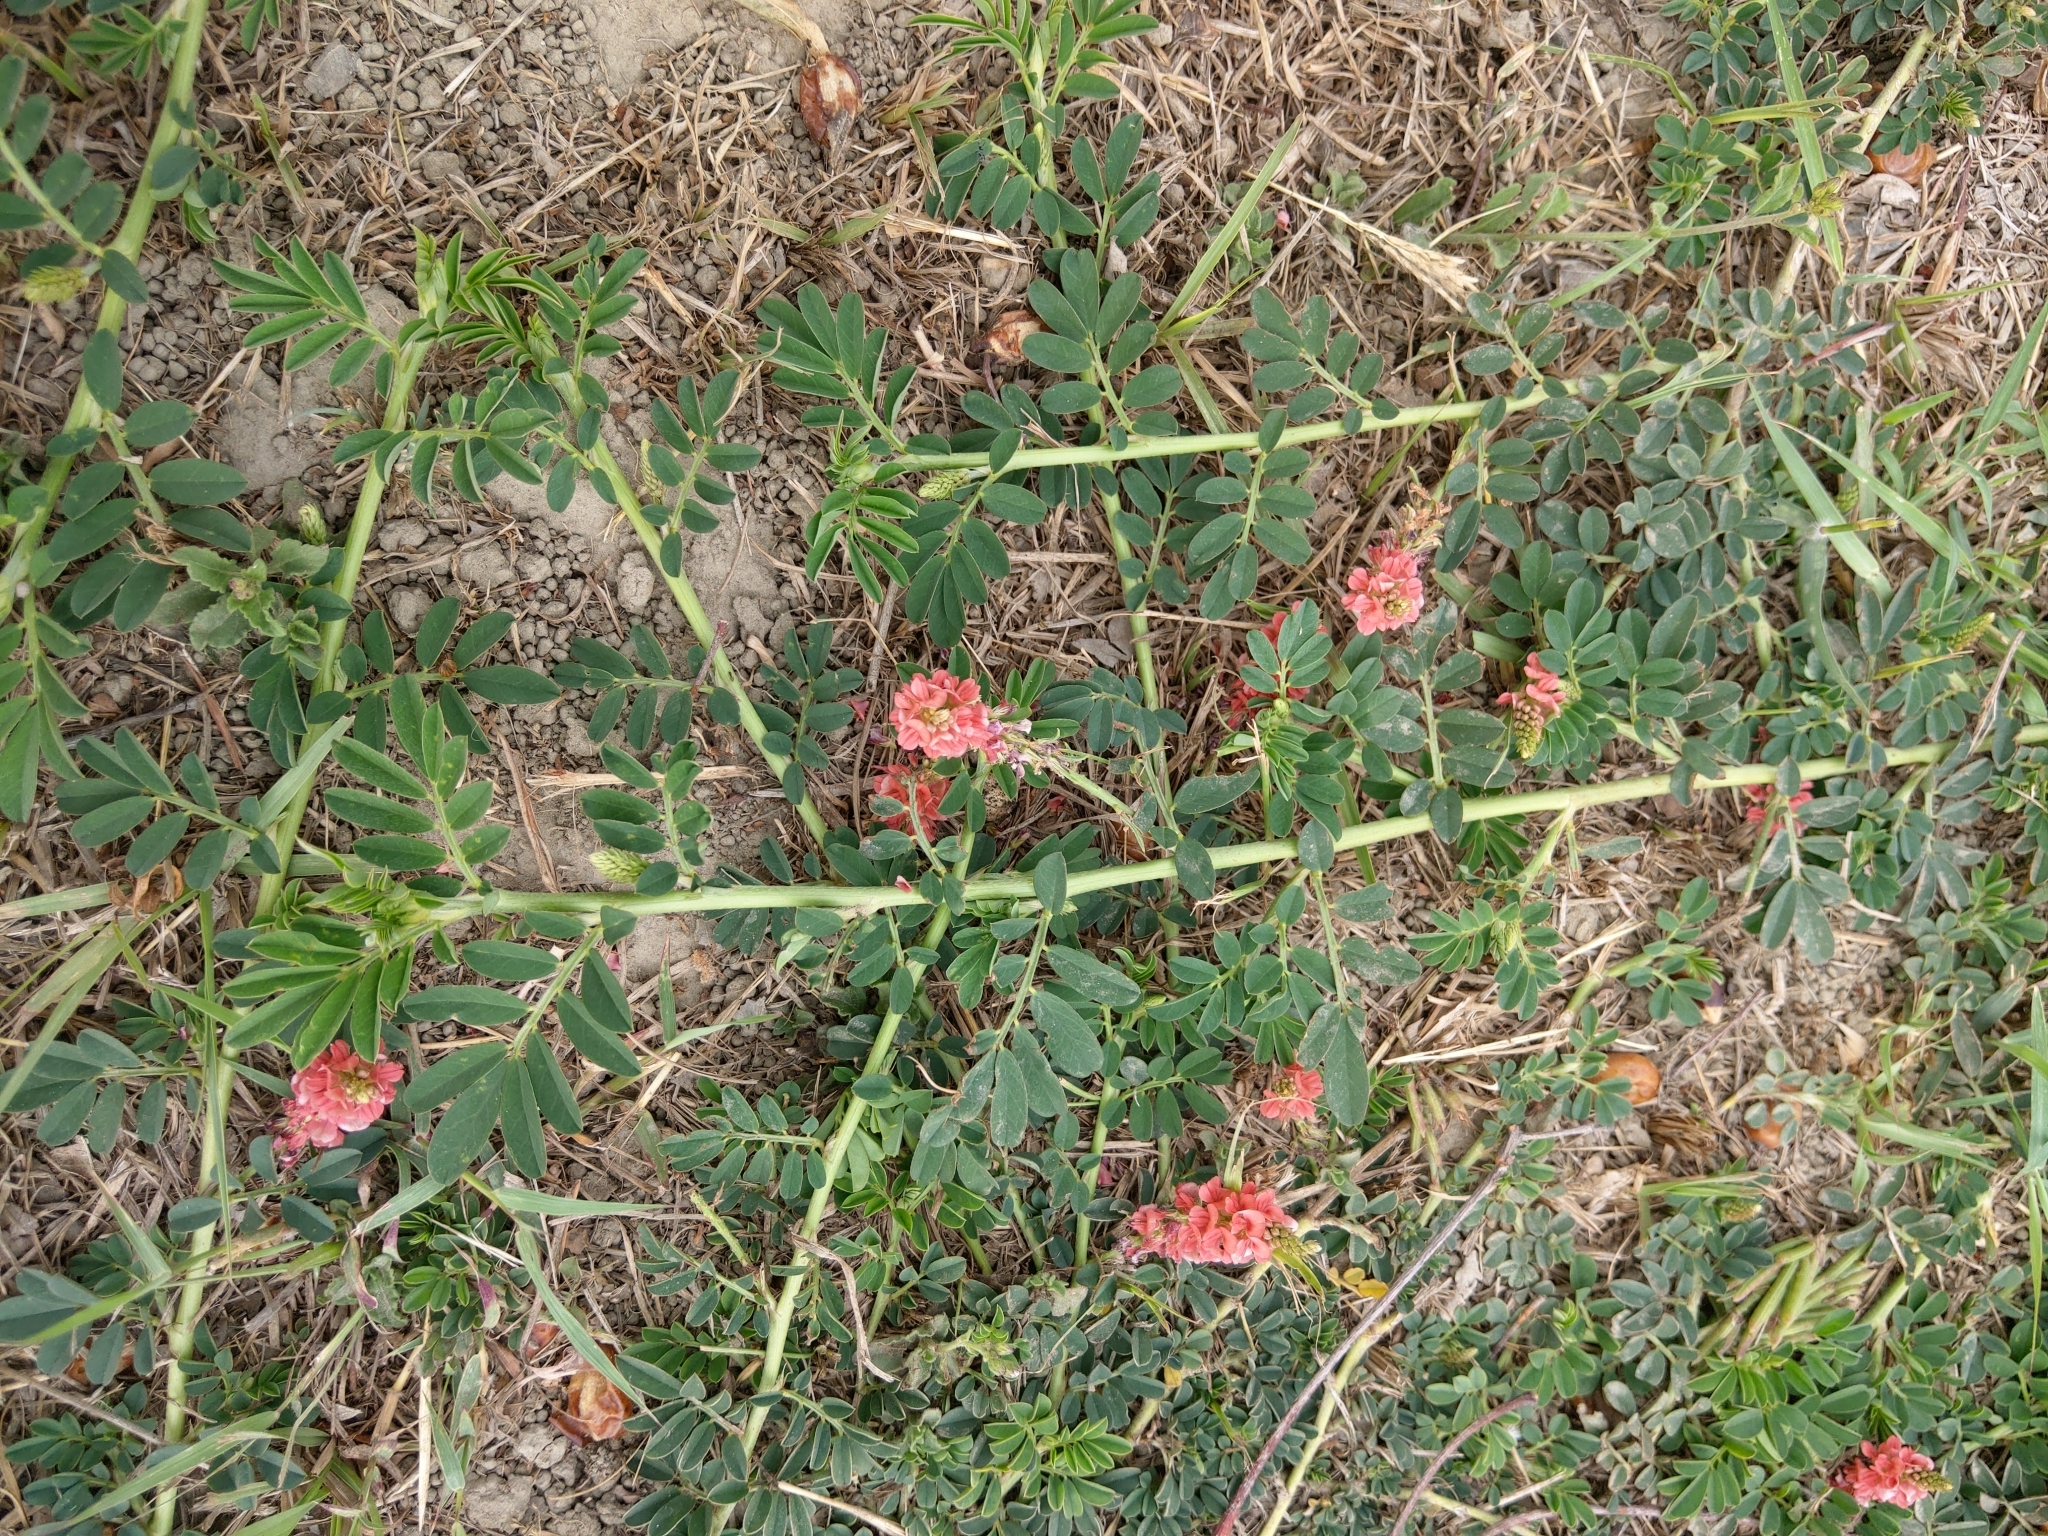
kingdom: Plantae
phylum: Tracheophyta
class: Magnoliopsida
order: Fabales
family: Fabaceae
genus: Indigofera
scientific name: Indigofera spicata
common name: Creeping indigo
